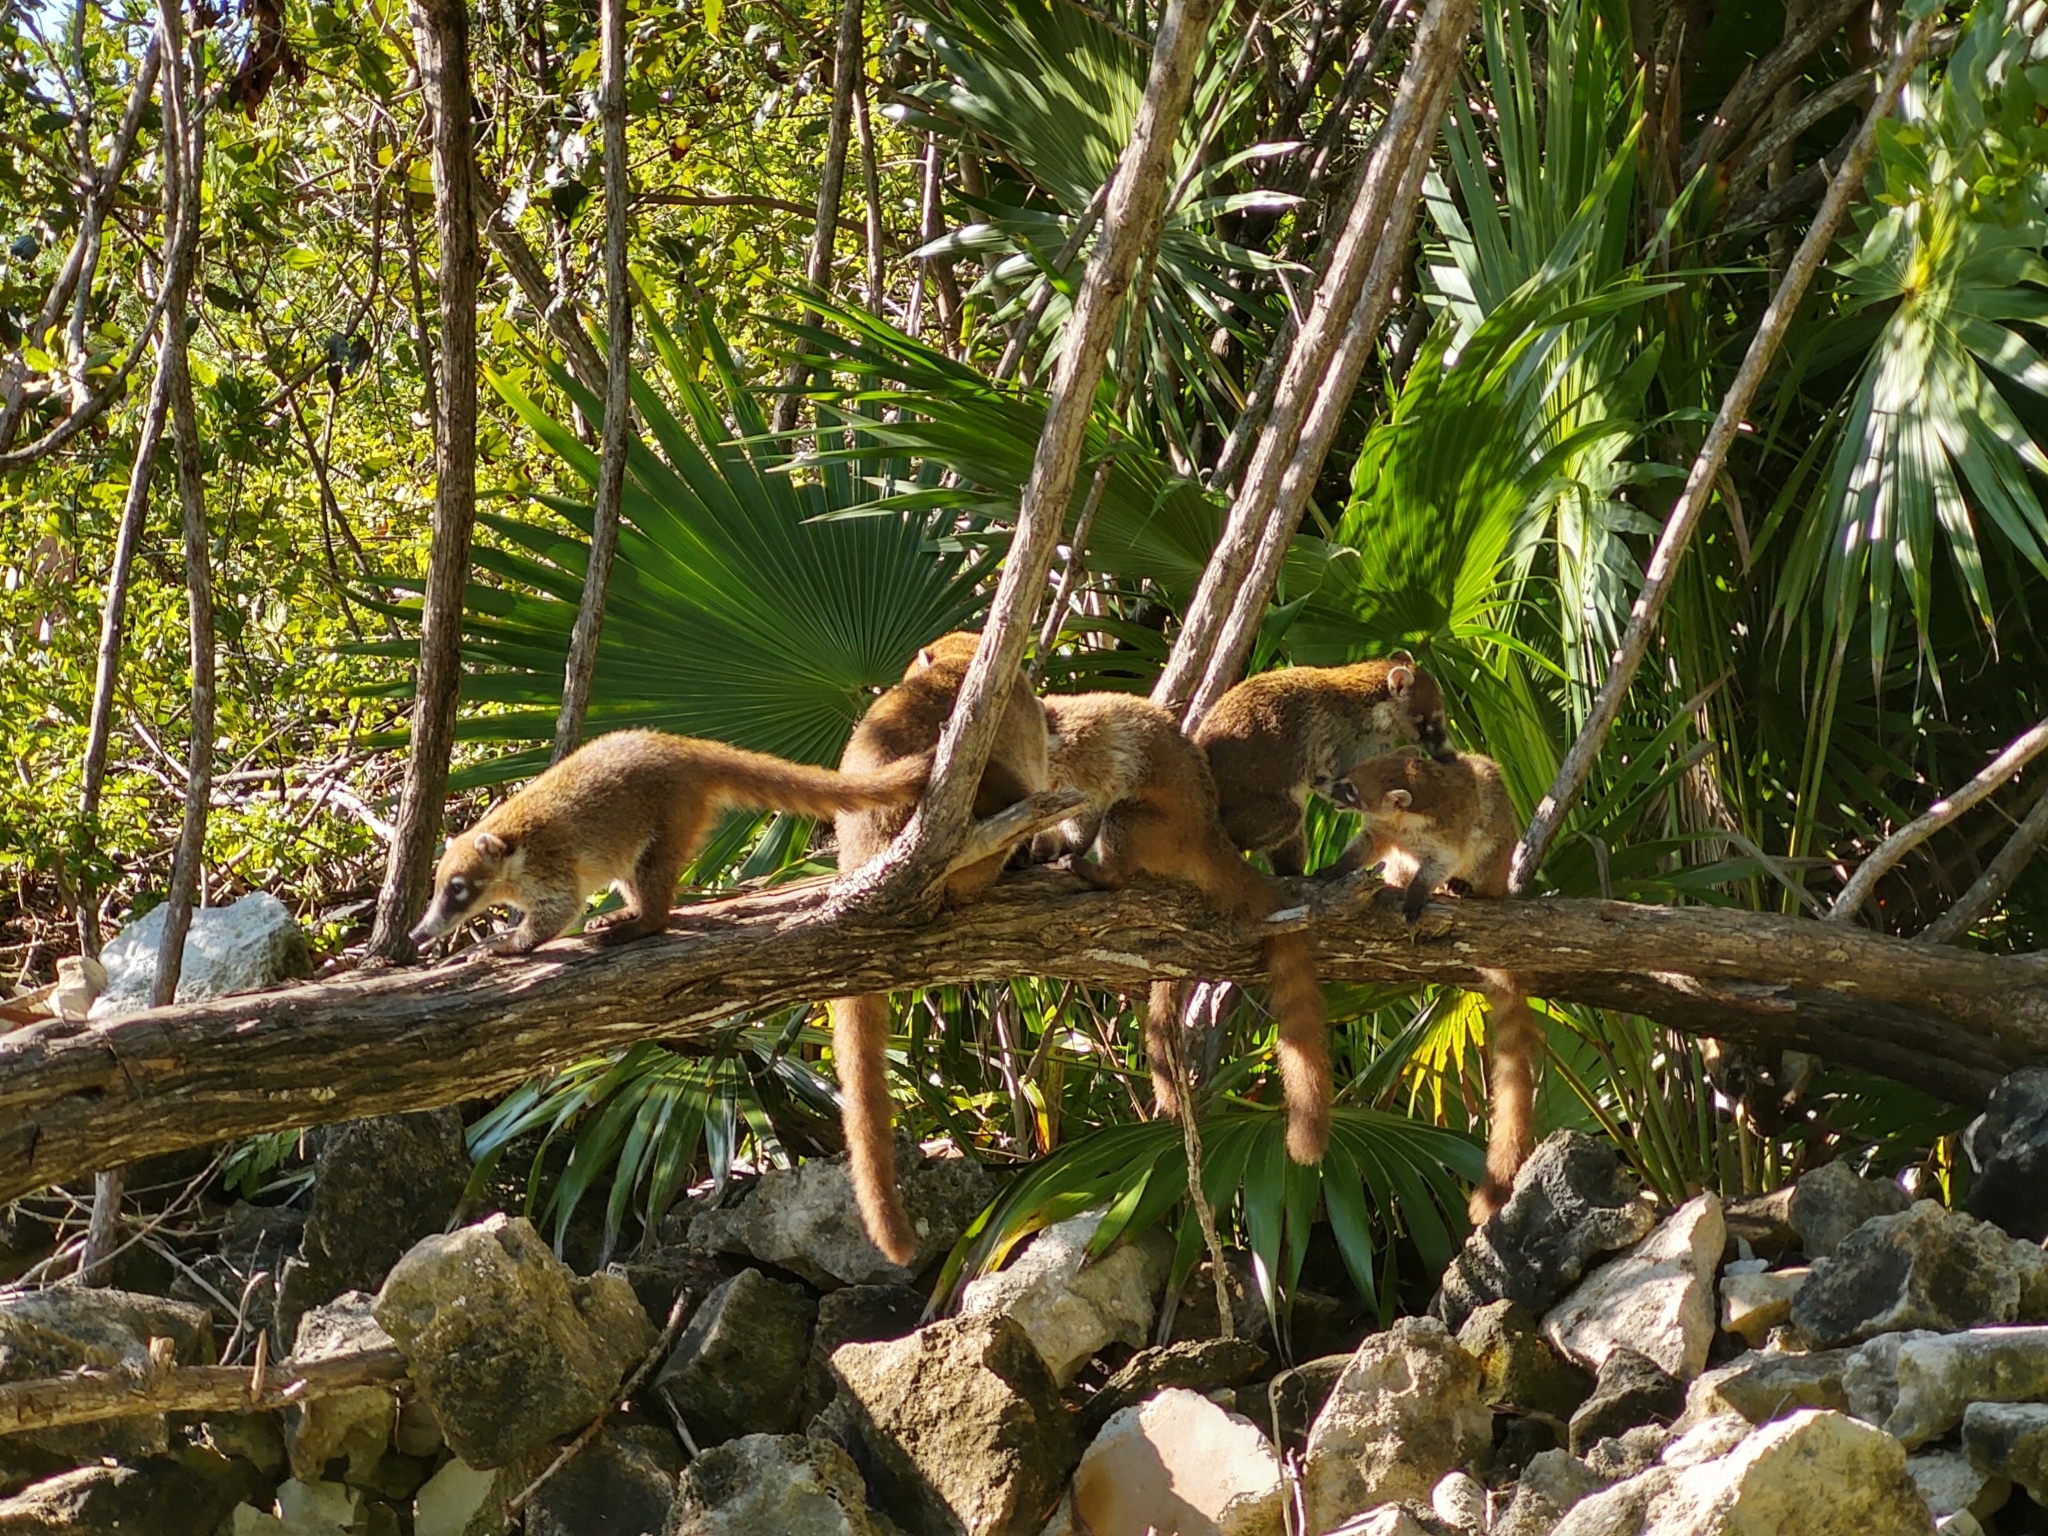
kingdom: Animalia
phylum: Chordata
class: Mammalia
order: Carnivora
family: Procyonidae
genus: Nasua
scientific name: Nasua narica
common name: White-nosed coati
